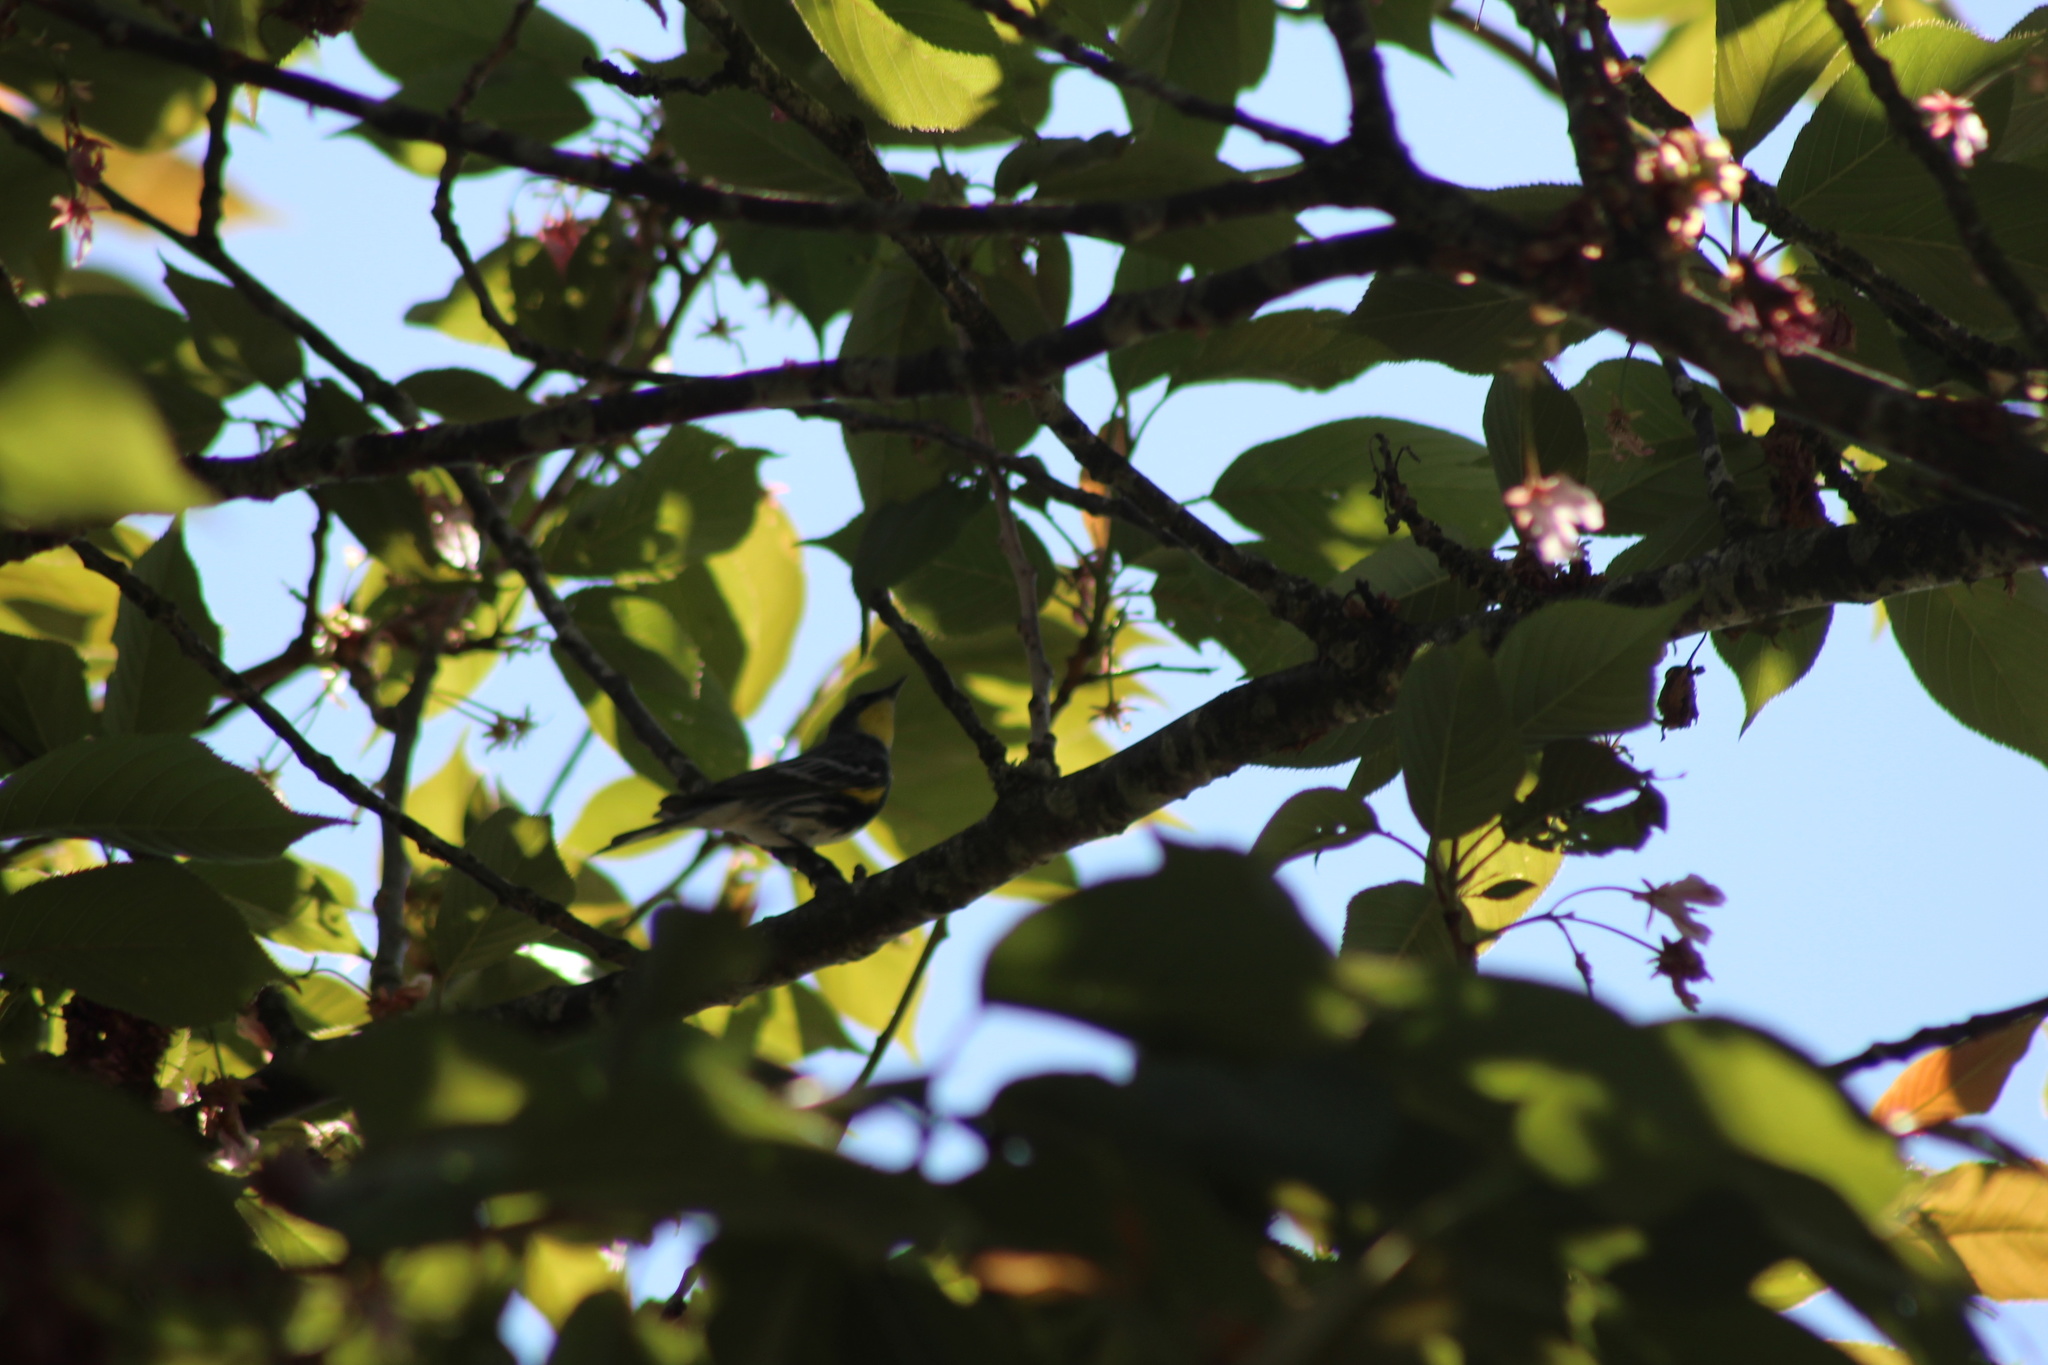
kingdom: Animalia
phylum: Chordata
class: Aves
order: Passeriformes
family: Parulidae
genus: Setophaga
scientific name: Setophaga auduboni
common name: Audubon's warbler
